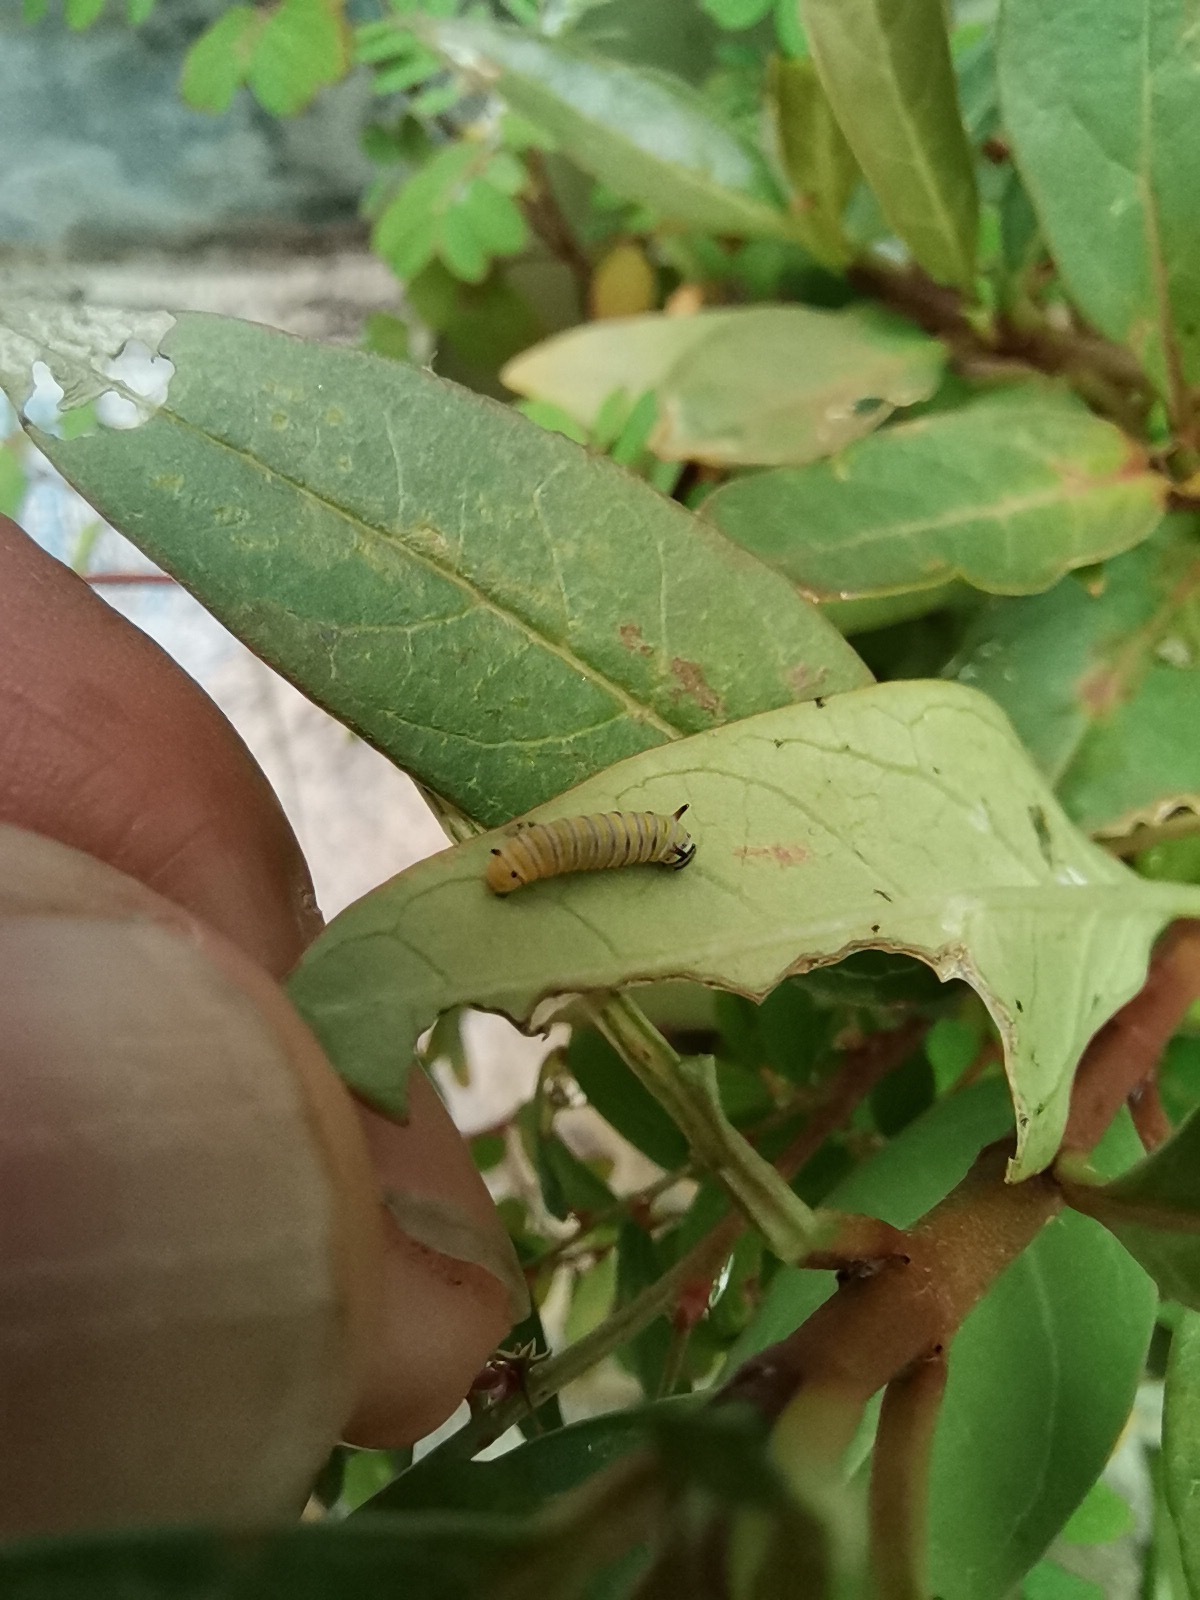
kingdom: Animalia
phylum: Arthropoda
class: Insecta
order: Lepidoptera
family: Nymphalidae
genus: Danaus
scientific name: Danaus plexippus
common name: Monarch
